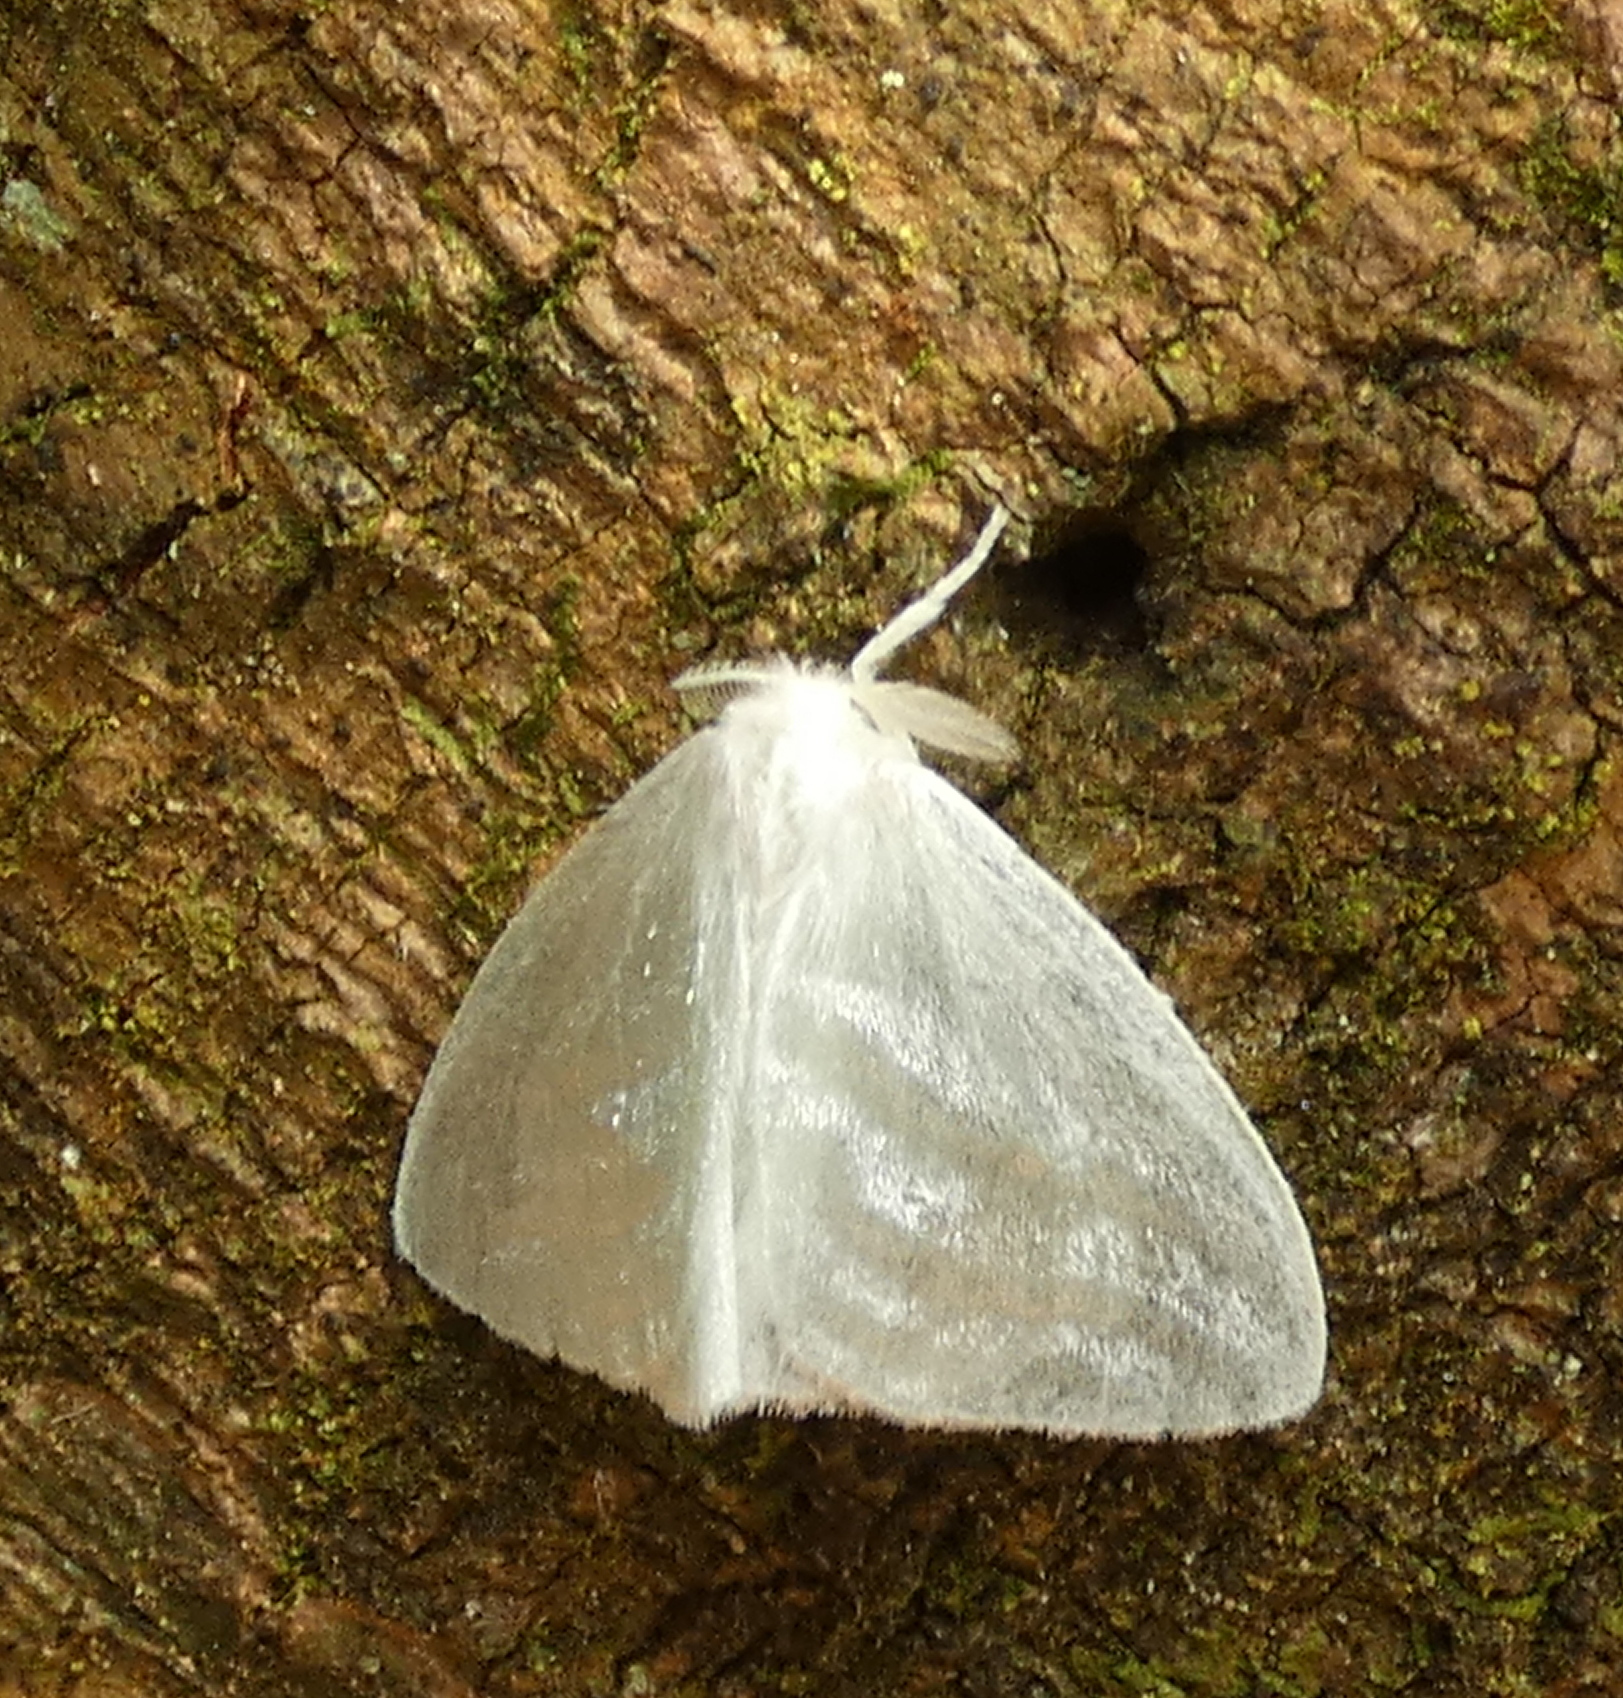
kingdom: Animalia
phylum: Arthropoda
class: Insecta
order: Lepidoptera
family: Erebidae
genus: Caviria
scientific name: Caviria regina
